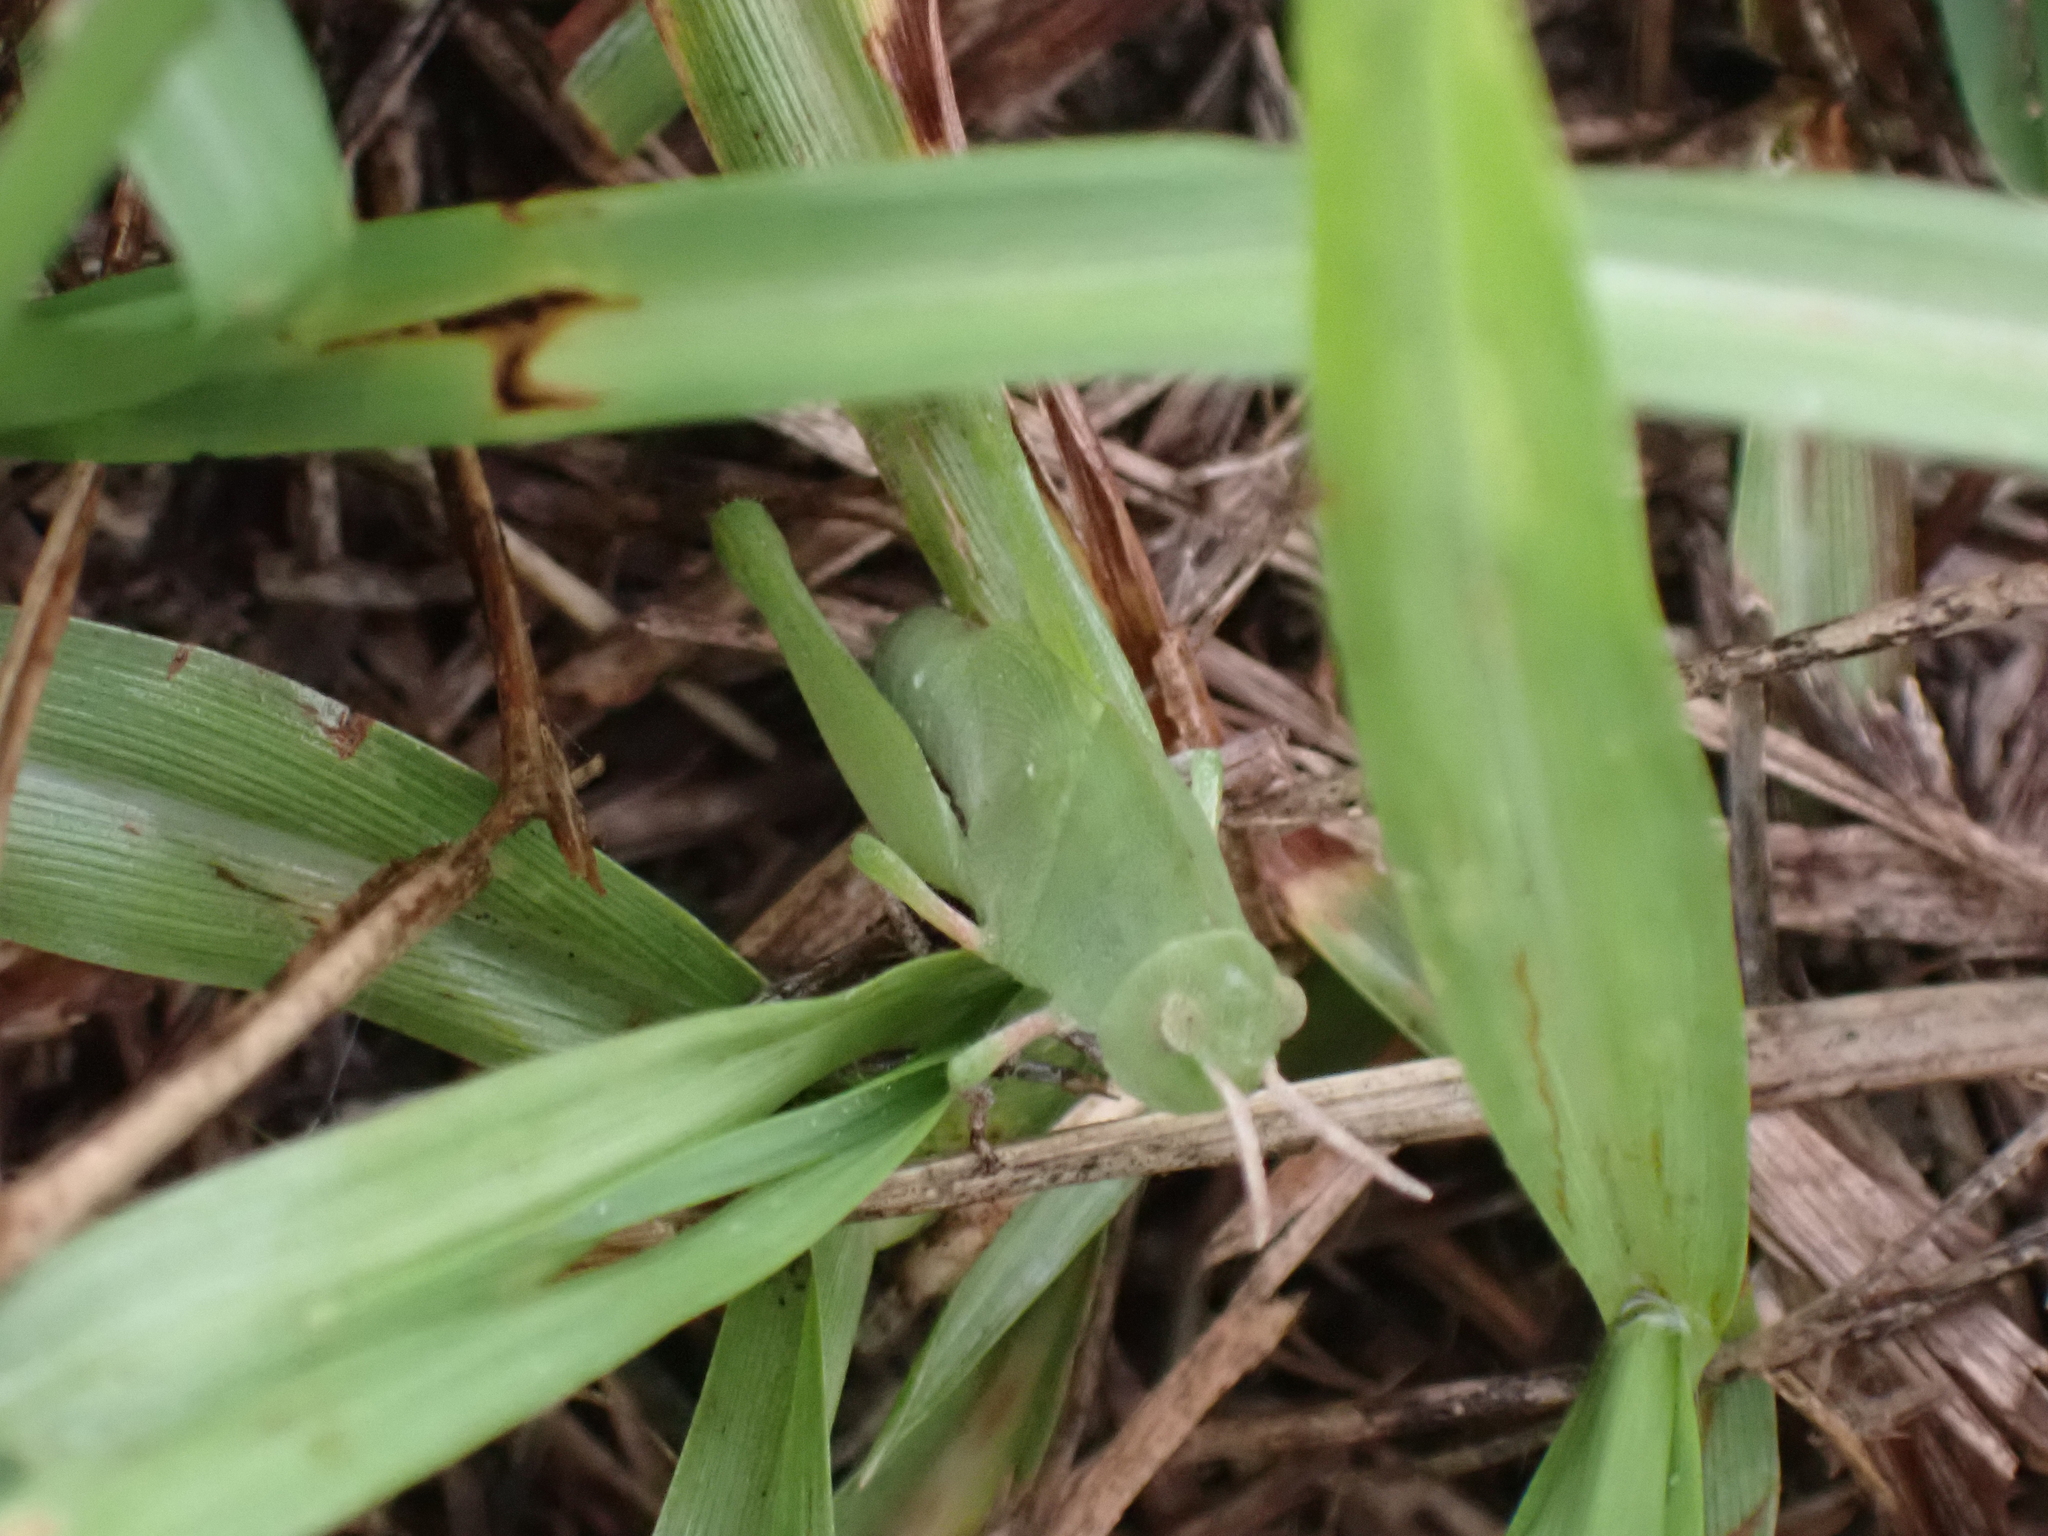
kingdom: Animalia
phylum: Arthropoda
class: Insecta
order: Orthoptera
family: Acrididae
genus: Chortophaga
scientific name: Chortophaga australior
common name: Southern green-striped grasshopper
